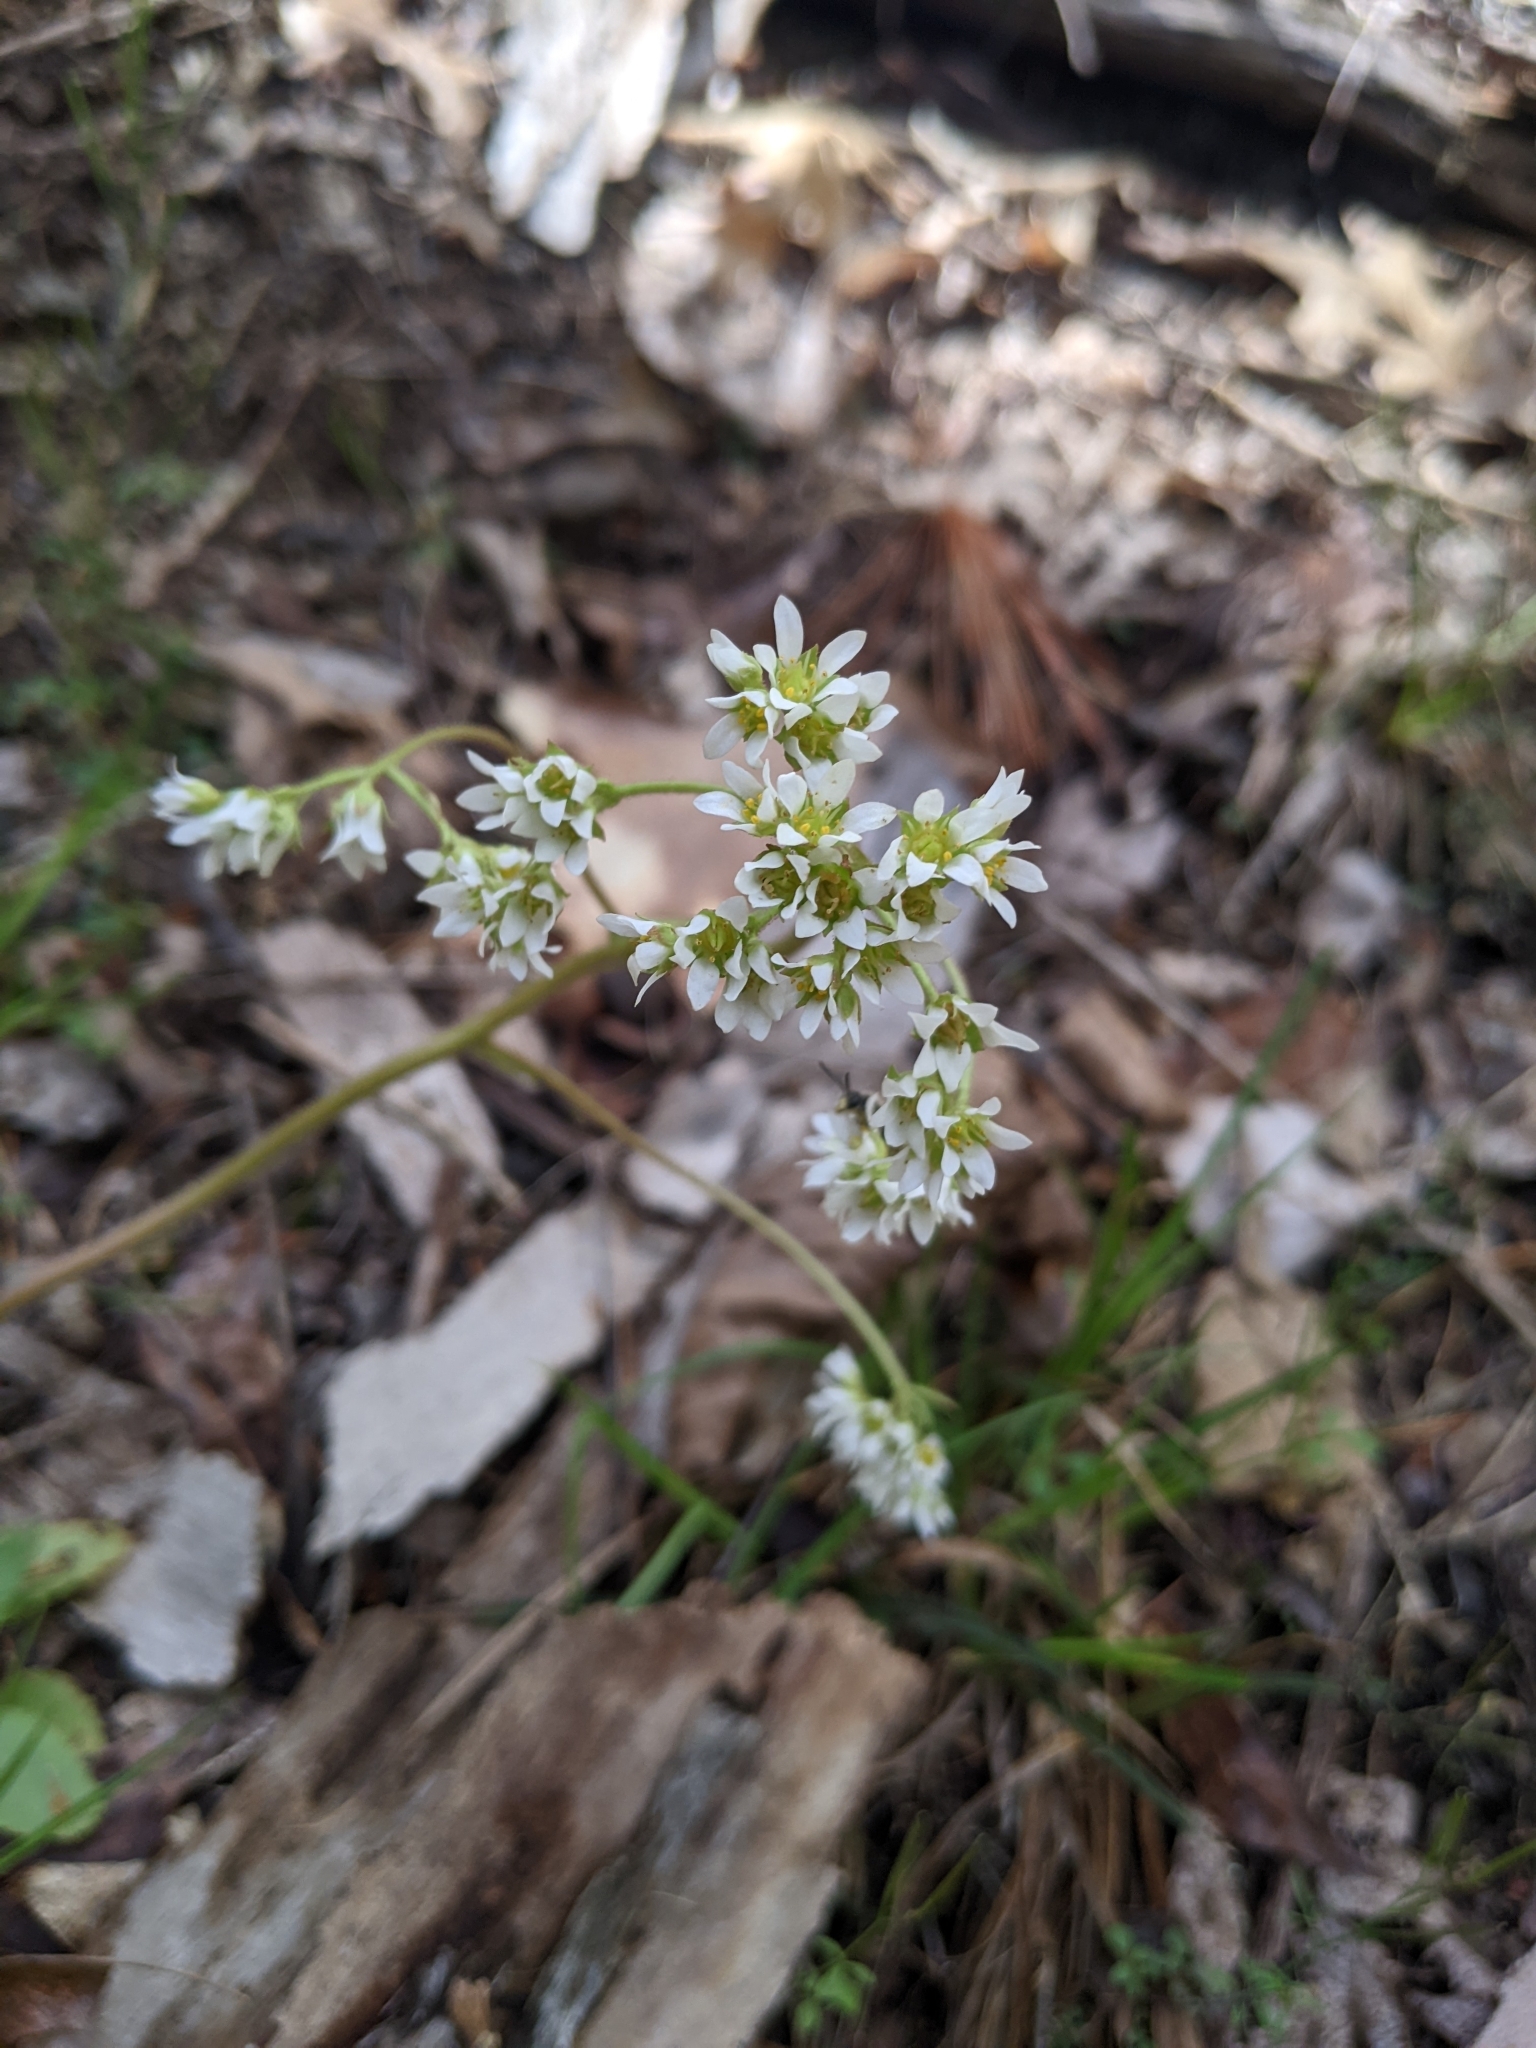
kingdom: Plantae
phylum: Tracheophyta
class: Magnoliopsida
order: Saxifragales
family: Saxifragaceae
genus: Micranthes
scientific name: Micranthes virginiensis
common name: Early saxifrage
